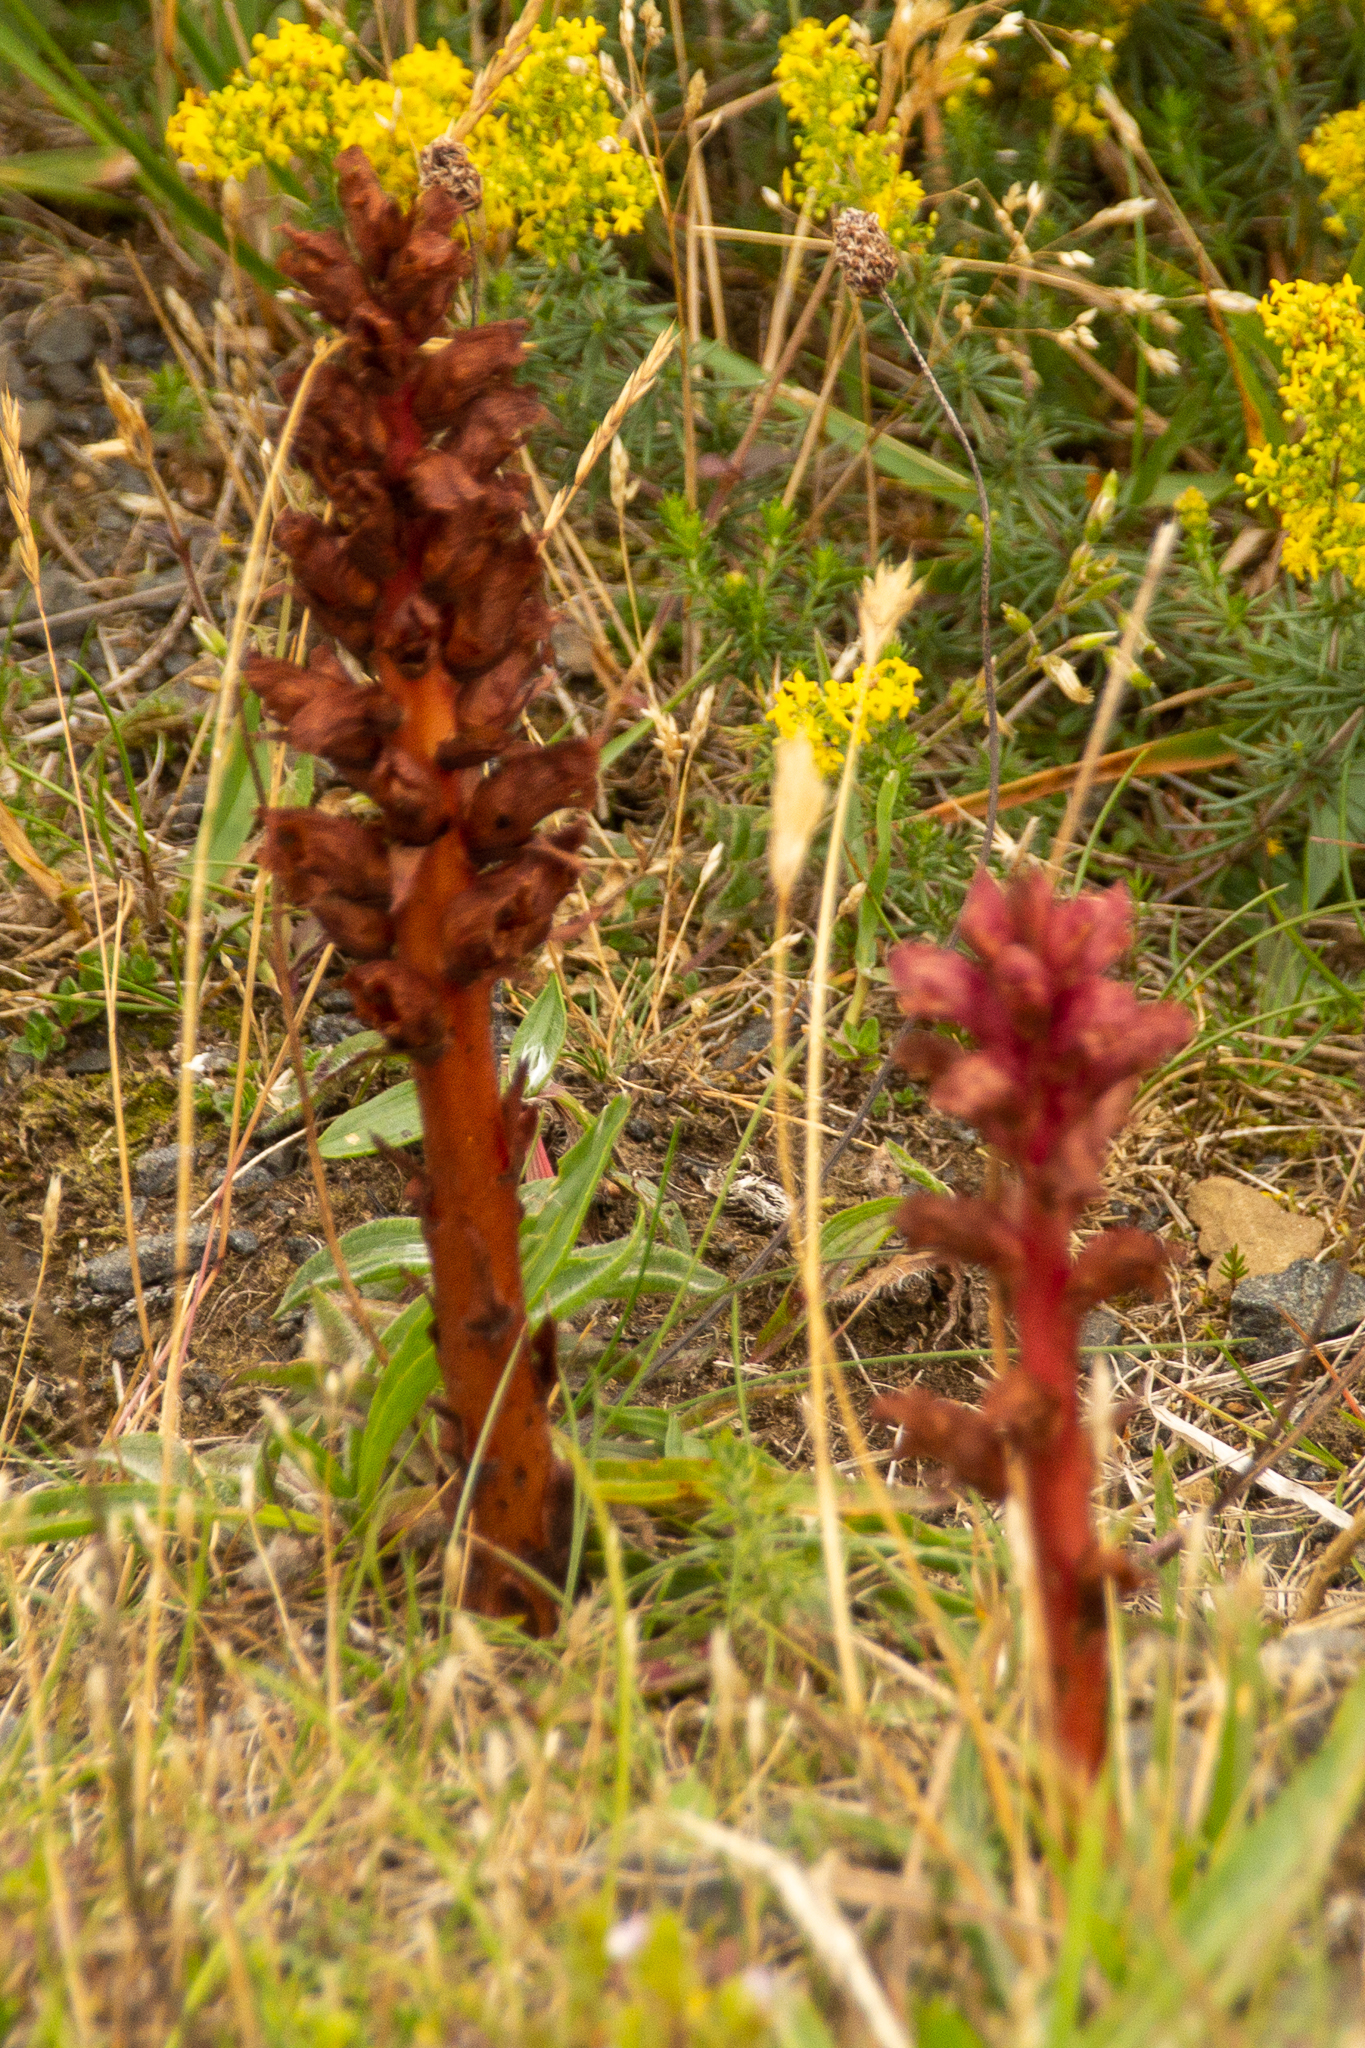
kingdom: Plantae
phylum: Tracheophyta
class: Magnoliopsida
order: Lamiales
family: Orobanchaceae
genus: Orobanche
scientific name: Orobanche alba
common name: Thyme broomrape
